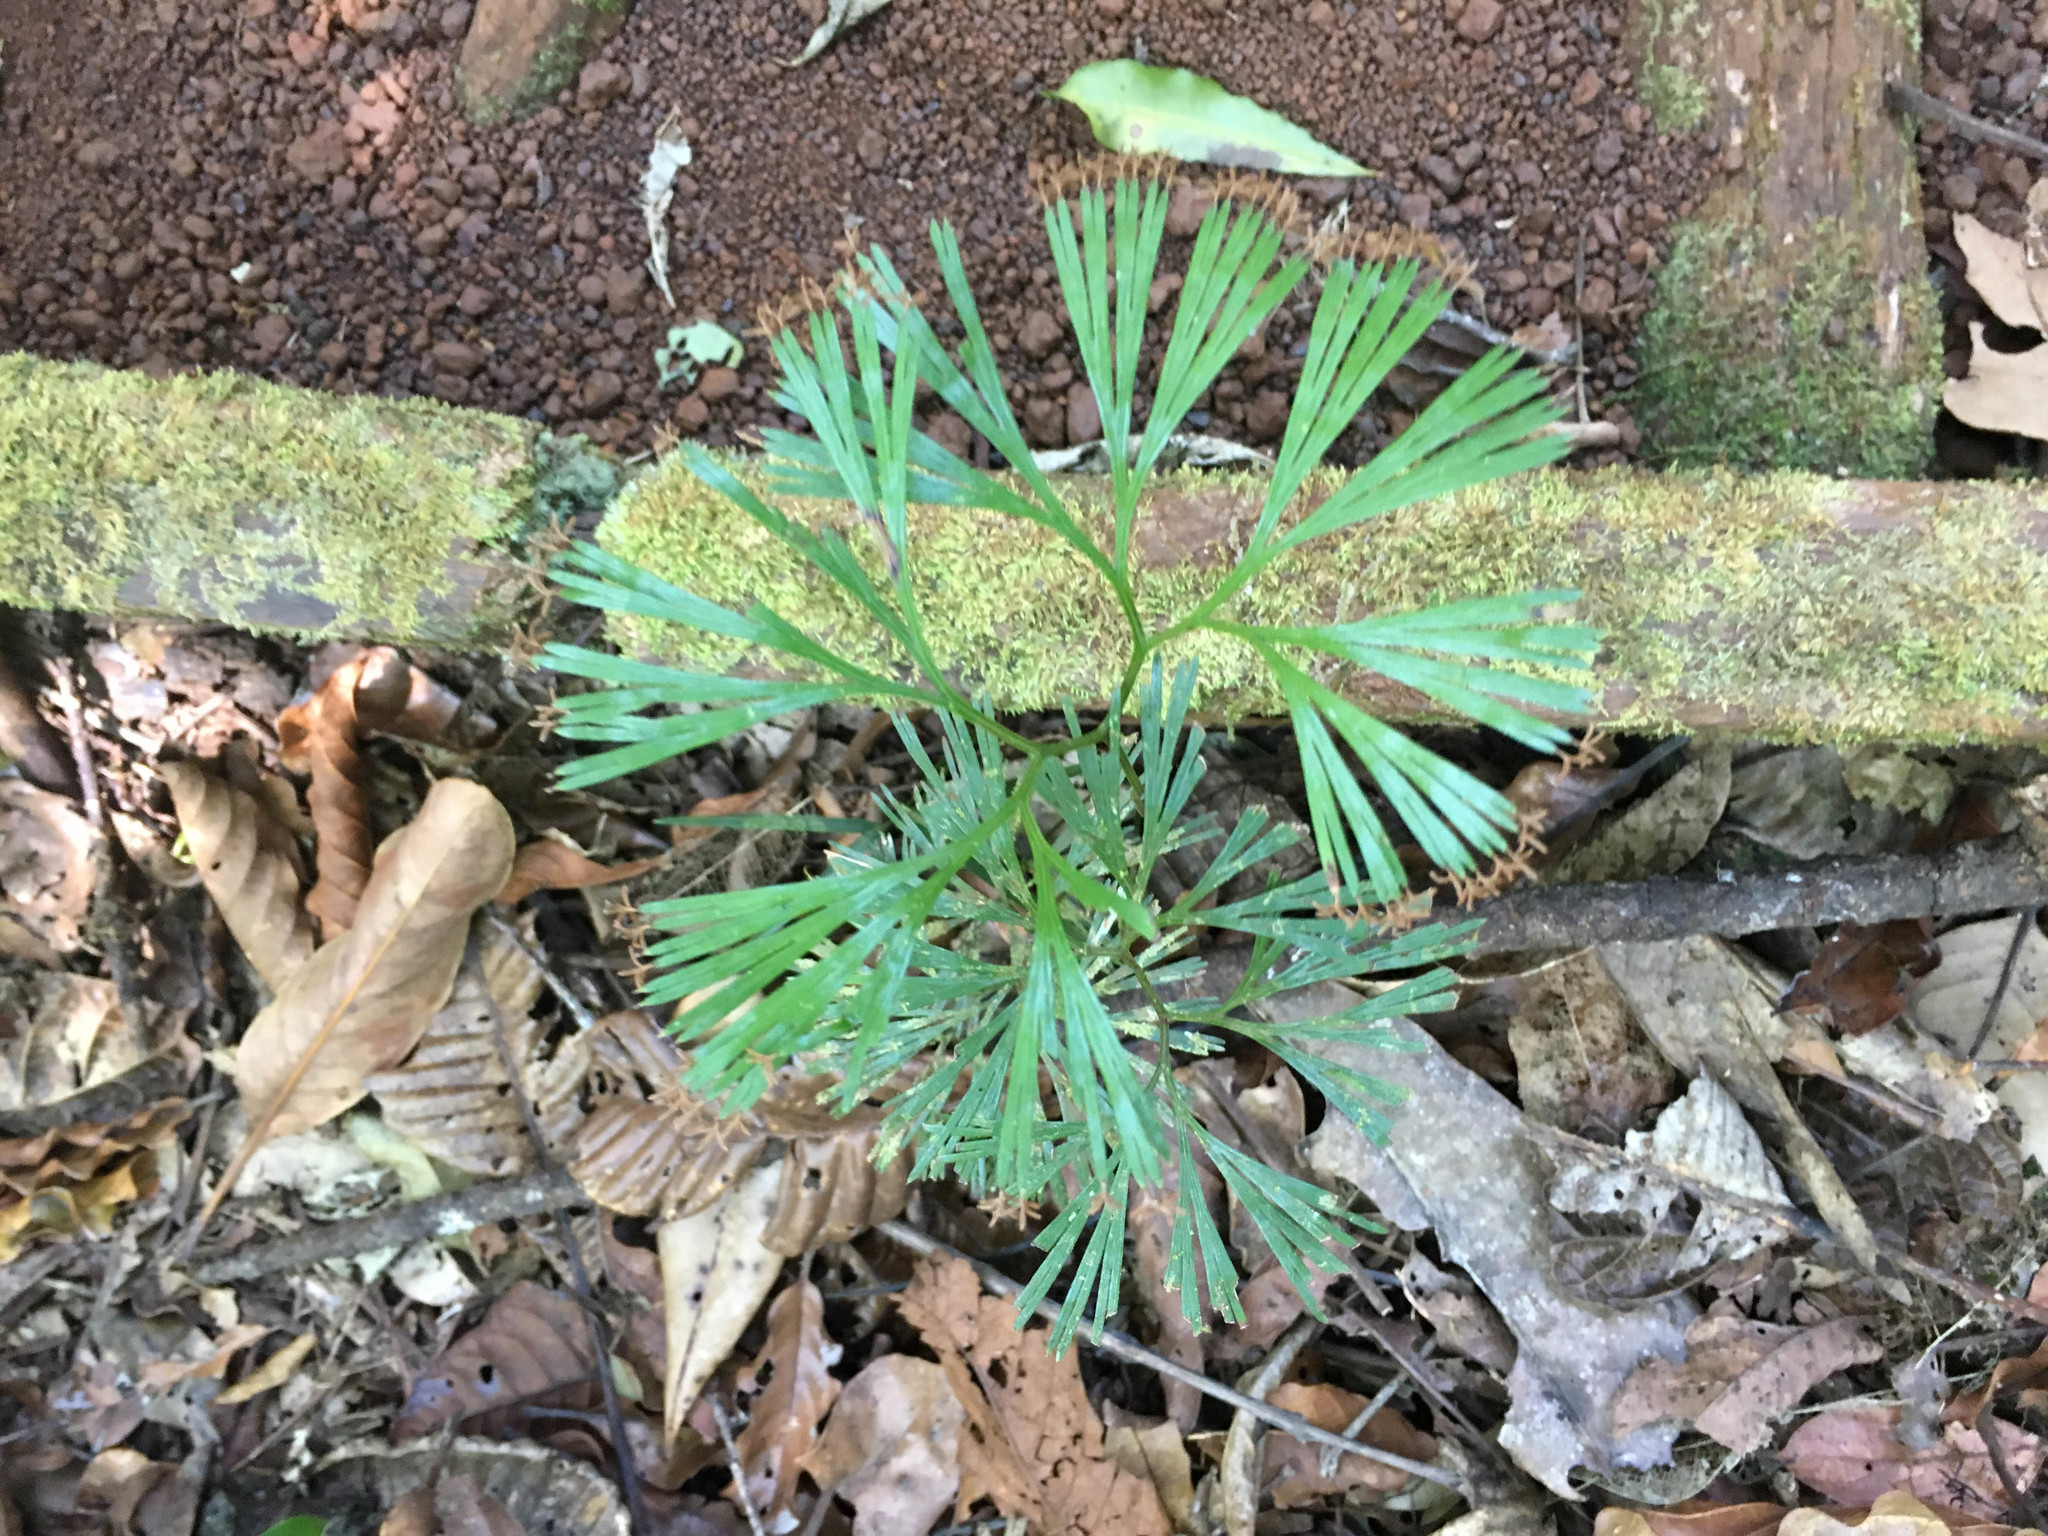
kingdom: Plantae
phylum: Tracheophyta
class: Polypodiopsida
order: Schizaeales
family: Schizaeaceae
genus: Schizaea
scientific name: Schizaea dichotoma
